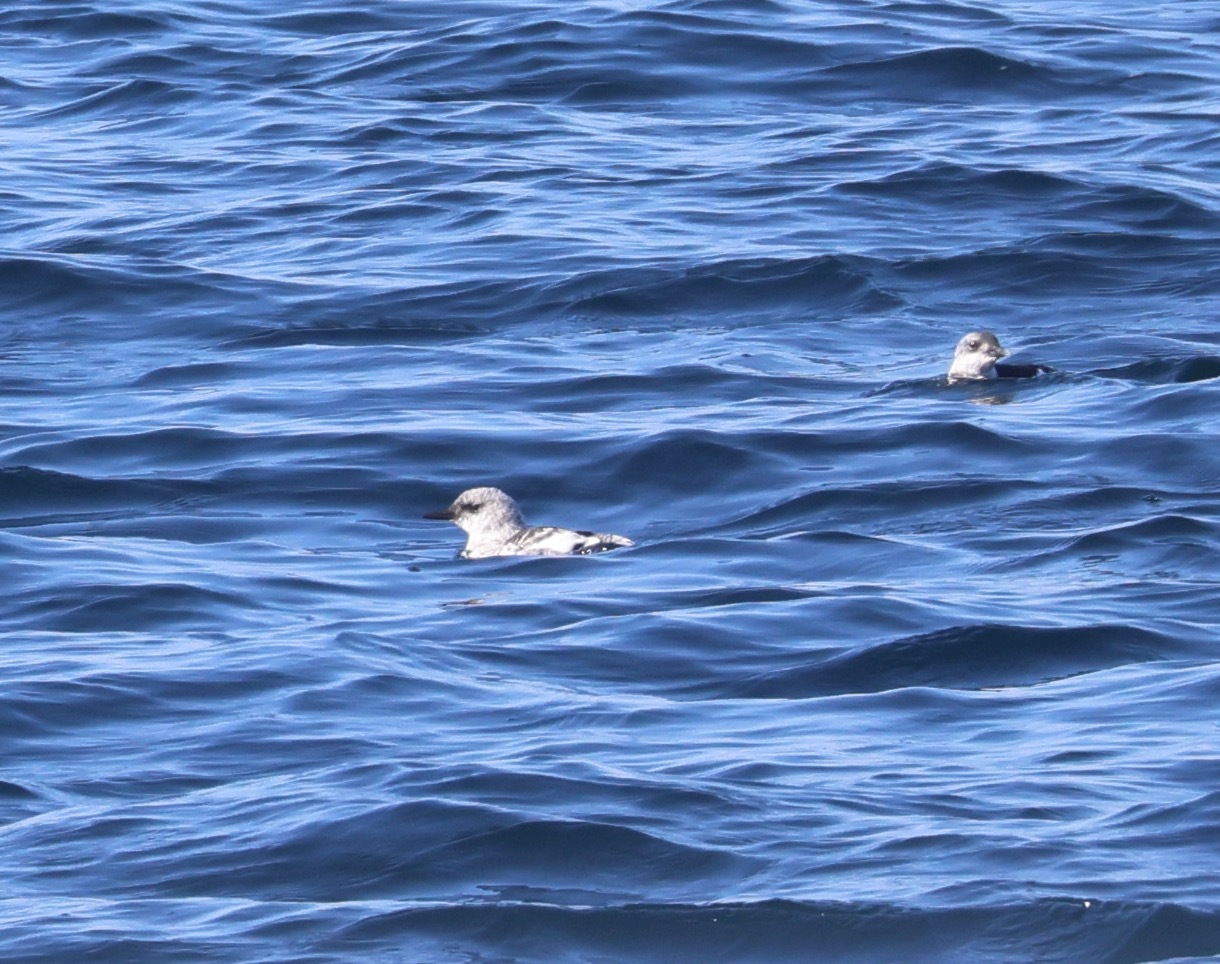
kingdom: Animalia
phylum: Chordata
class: Aves
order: Charadriiformes
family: Alcidae
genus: Cepphus
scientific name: Cepphus grylle
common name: Black guillemot
